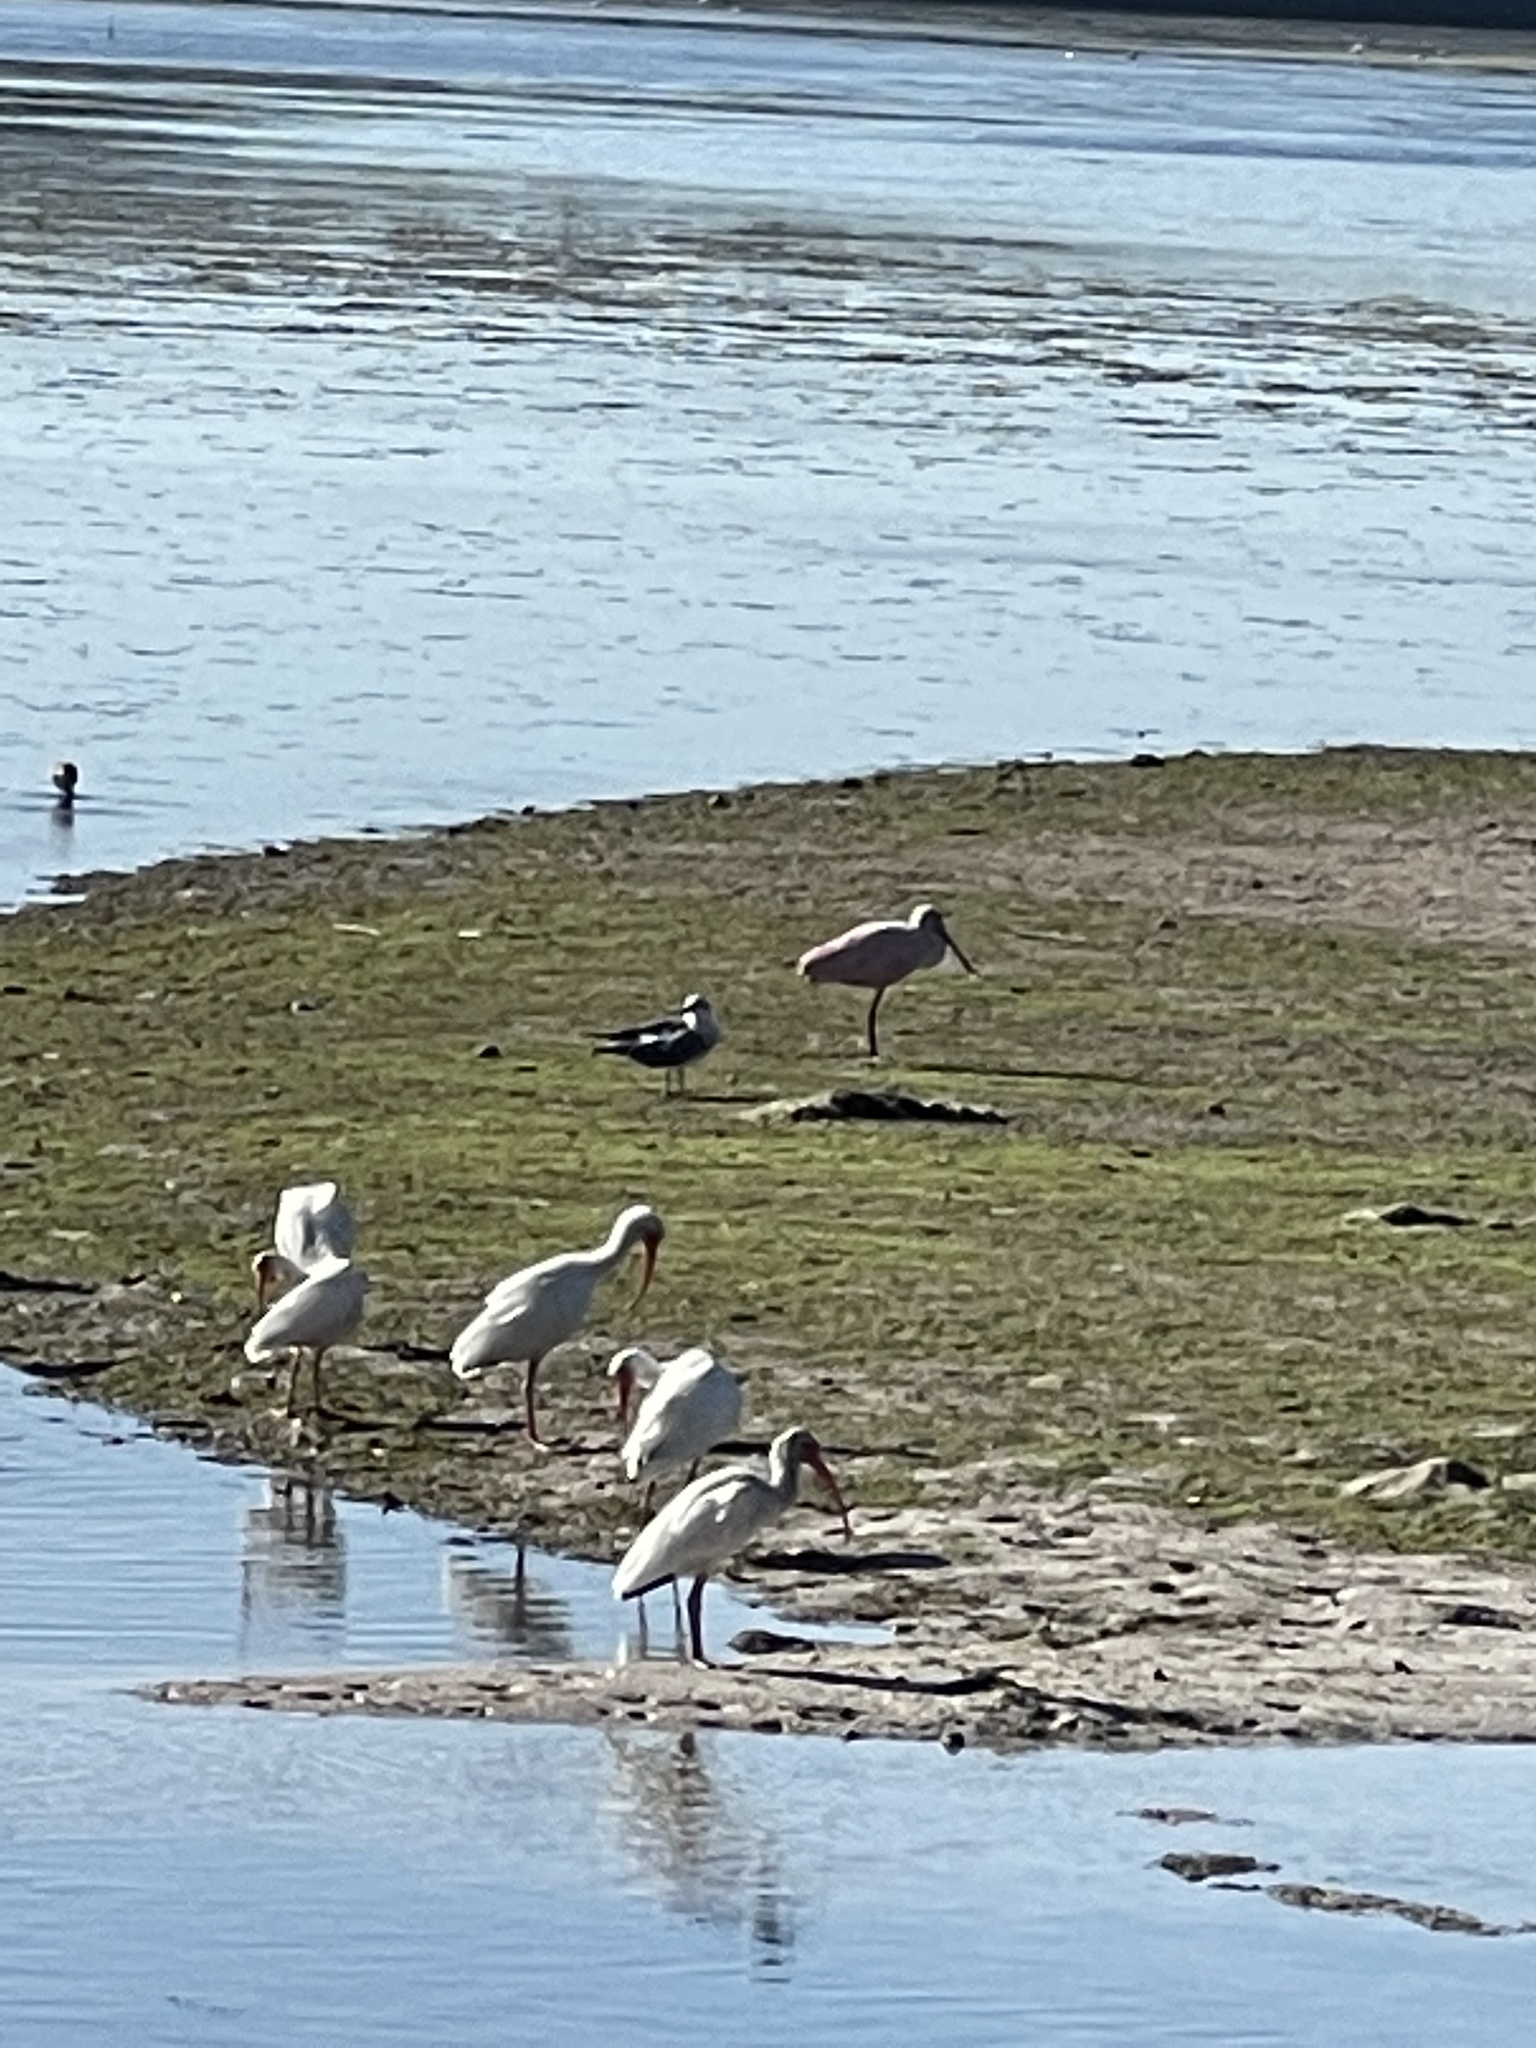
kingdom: Animalia
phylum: Chordata
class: Aves
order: Pelecaniformes
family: Threskiornithidae
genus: Platalea
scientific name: Platalea ajaja
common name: Roseate spoonbill
